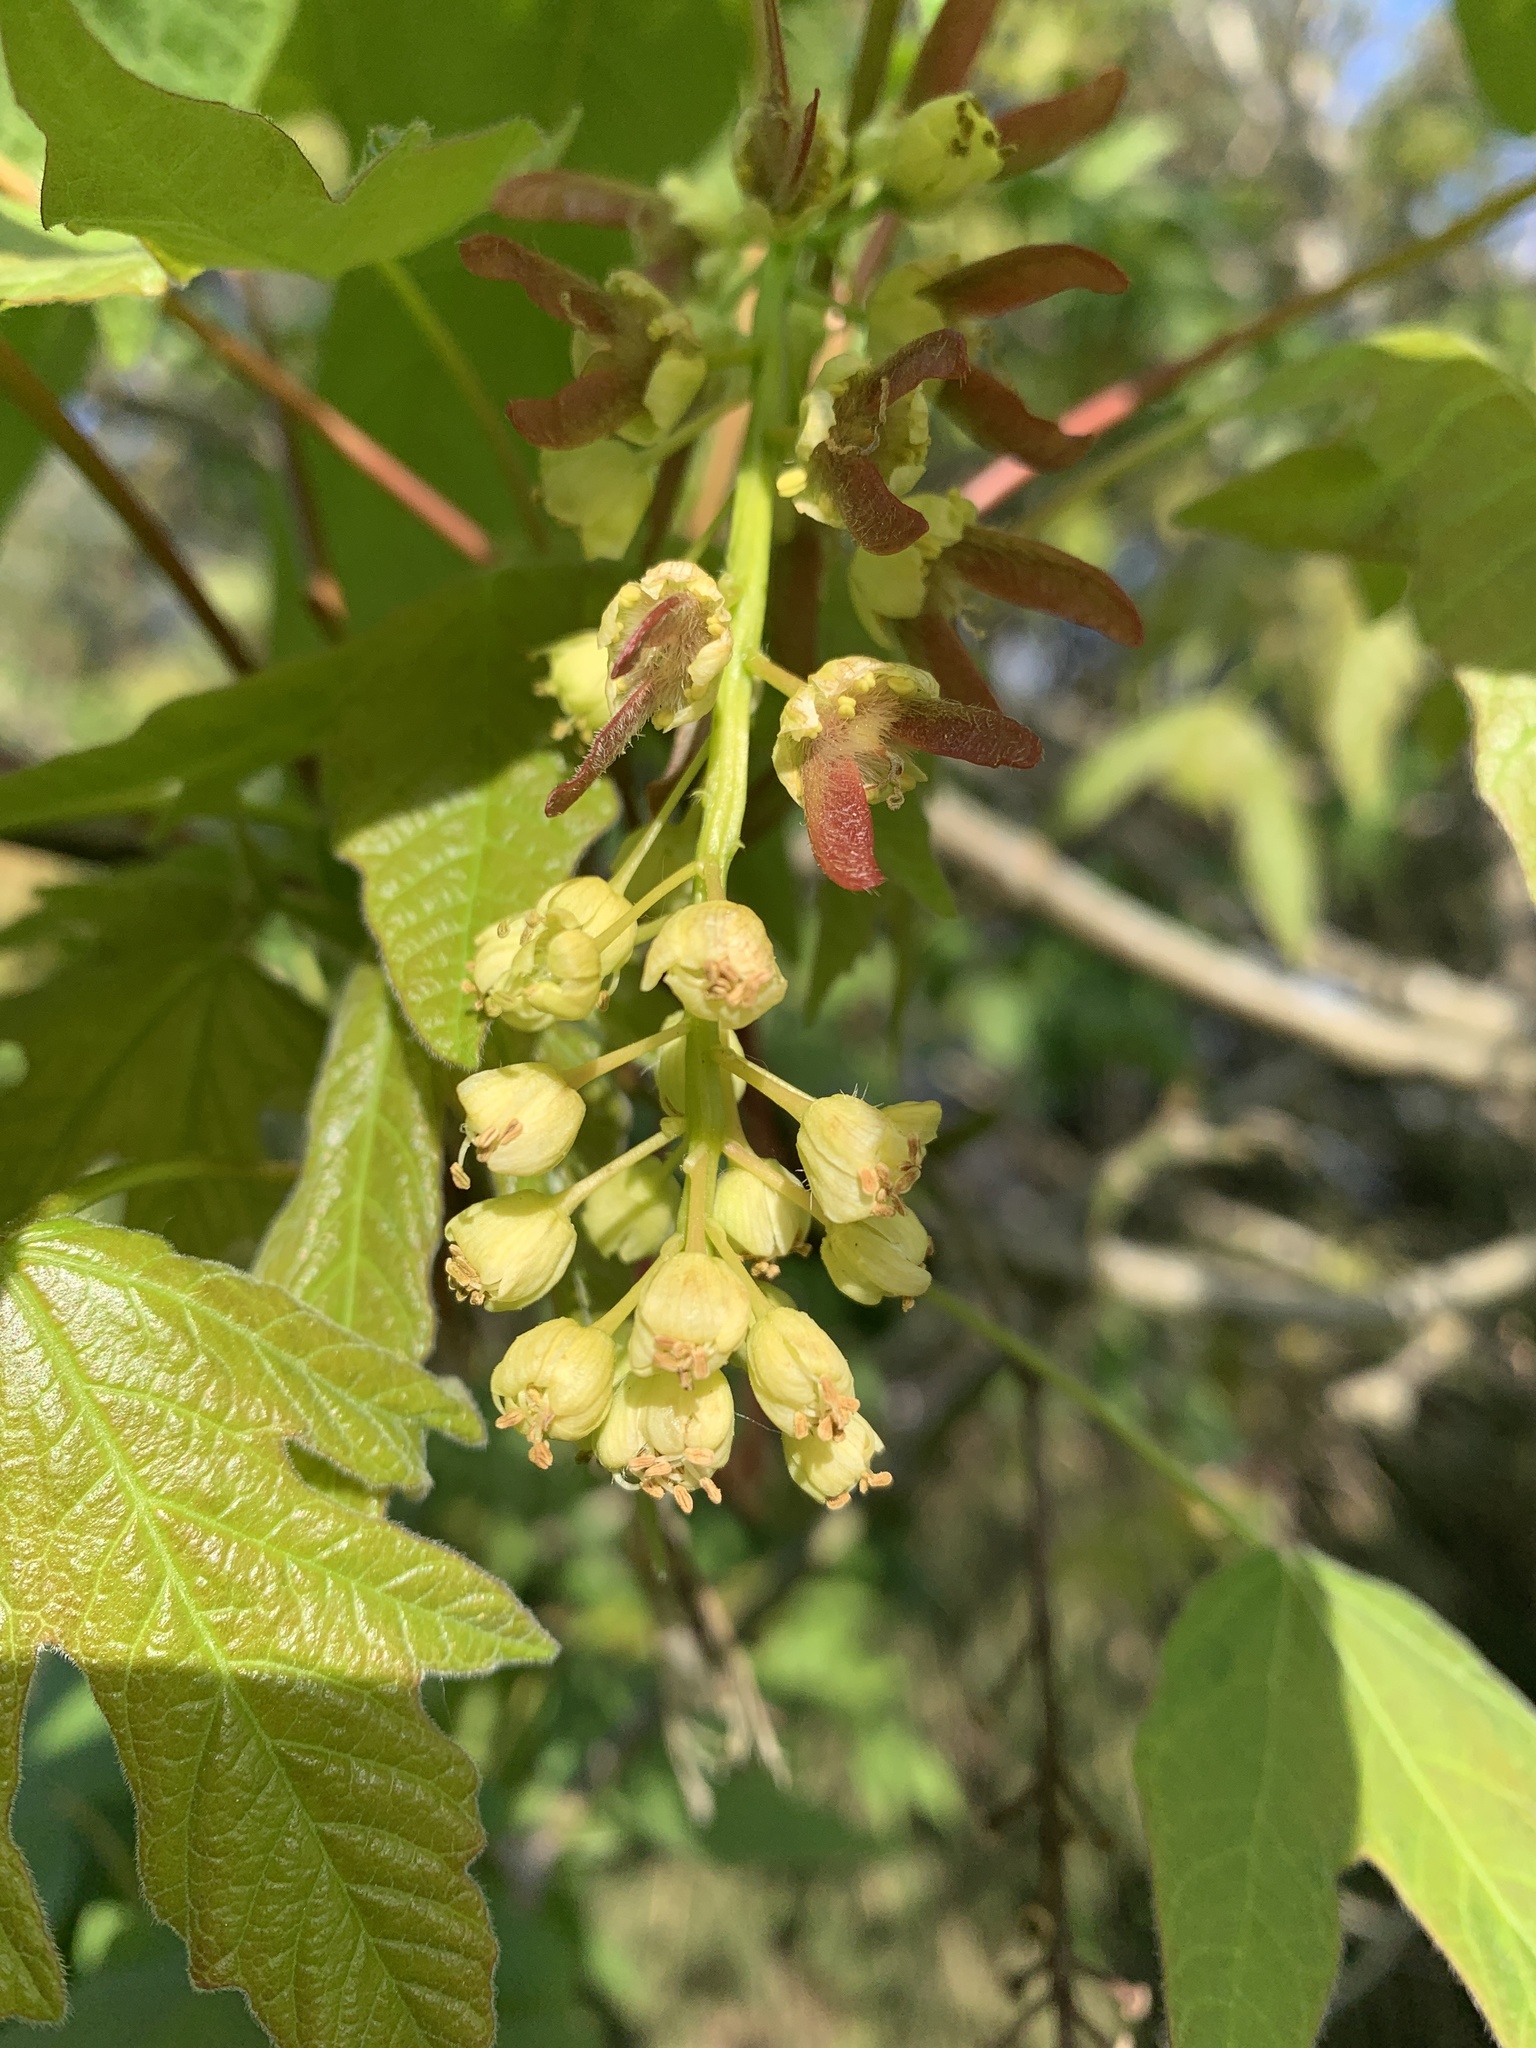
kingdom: Plantae
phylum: Tracheophyta
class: Magnoliopsida
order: Sapindales
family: Sapindaceae
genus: Acer
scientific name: Acer macrophyllum
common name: Oregon maple
